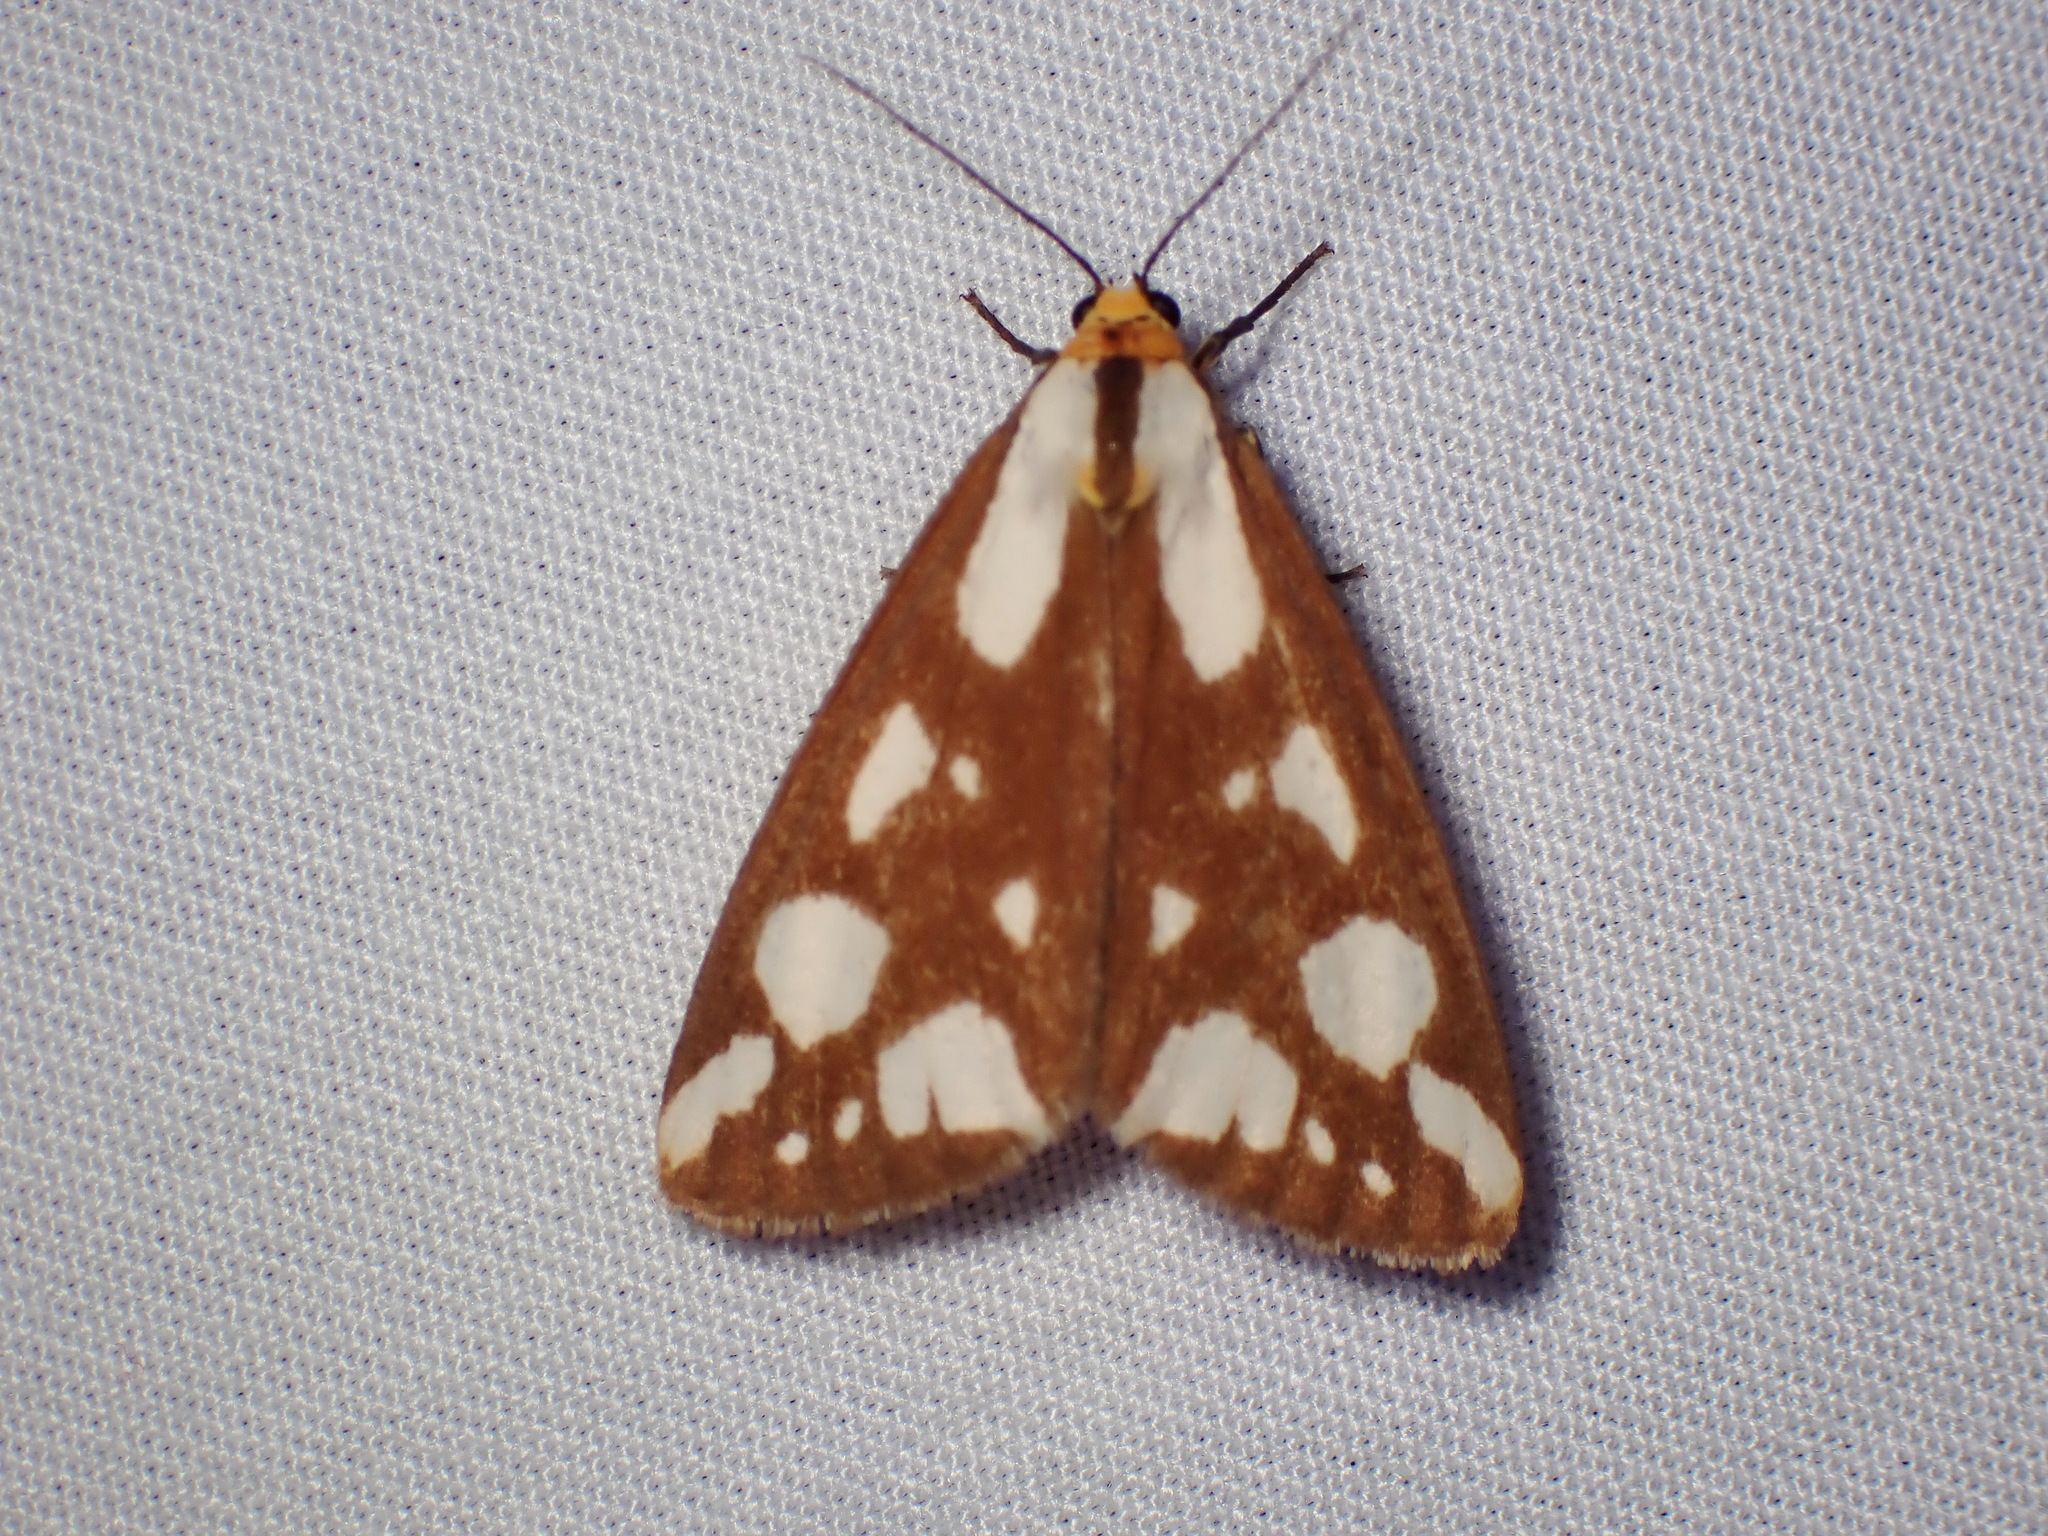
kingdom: Animalia
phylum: Arthropoda
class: Insecta
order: Lepidoptera
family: Erebidae
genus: Haploa
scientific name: Haploa confusa
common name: Confused haploa moth
